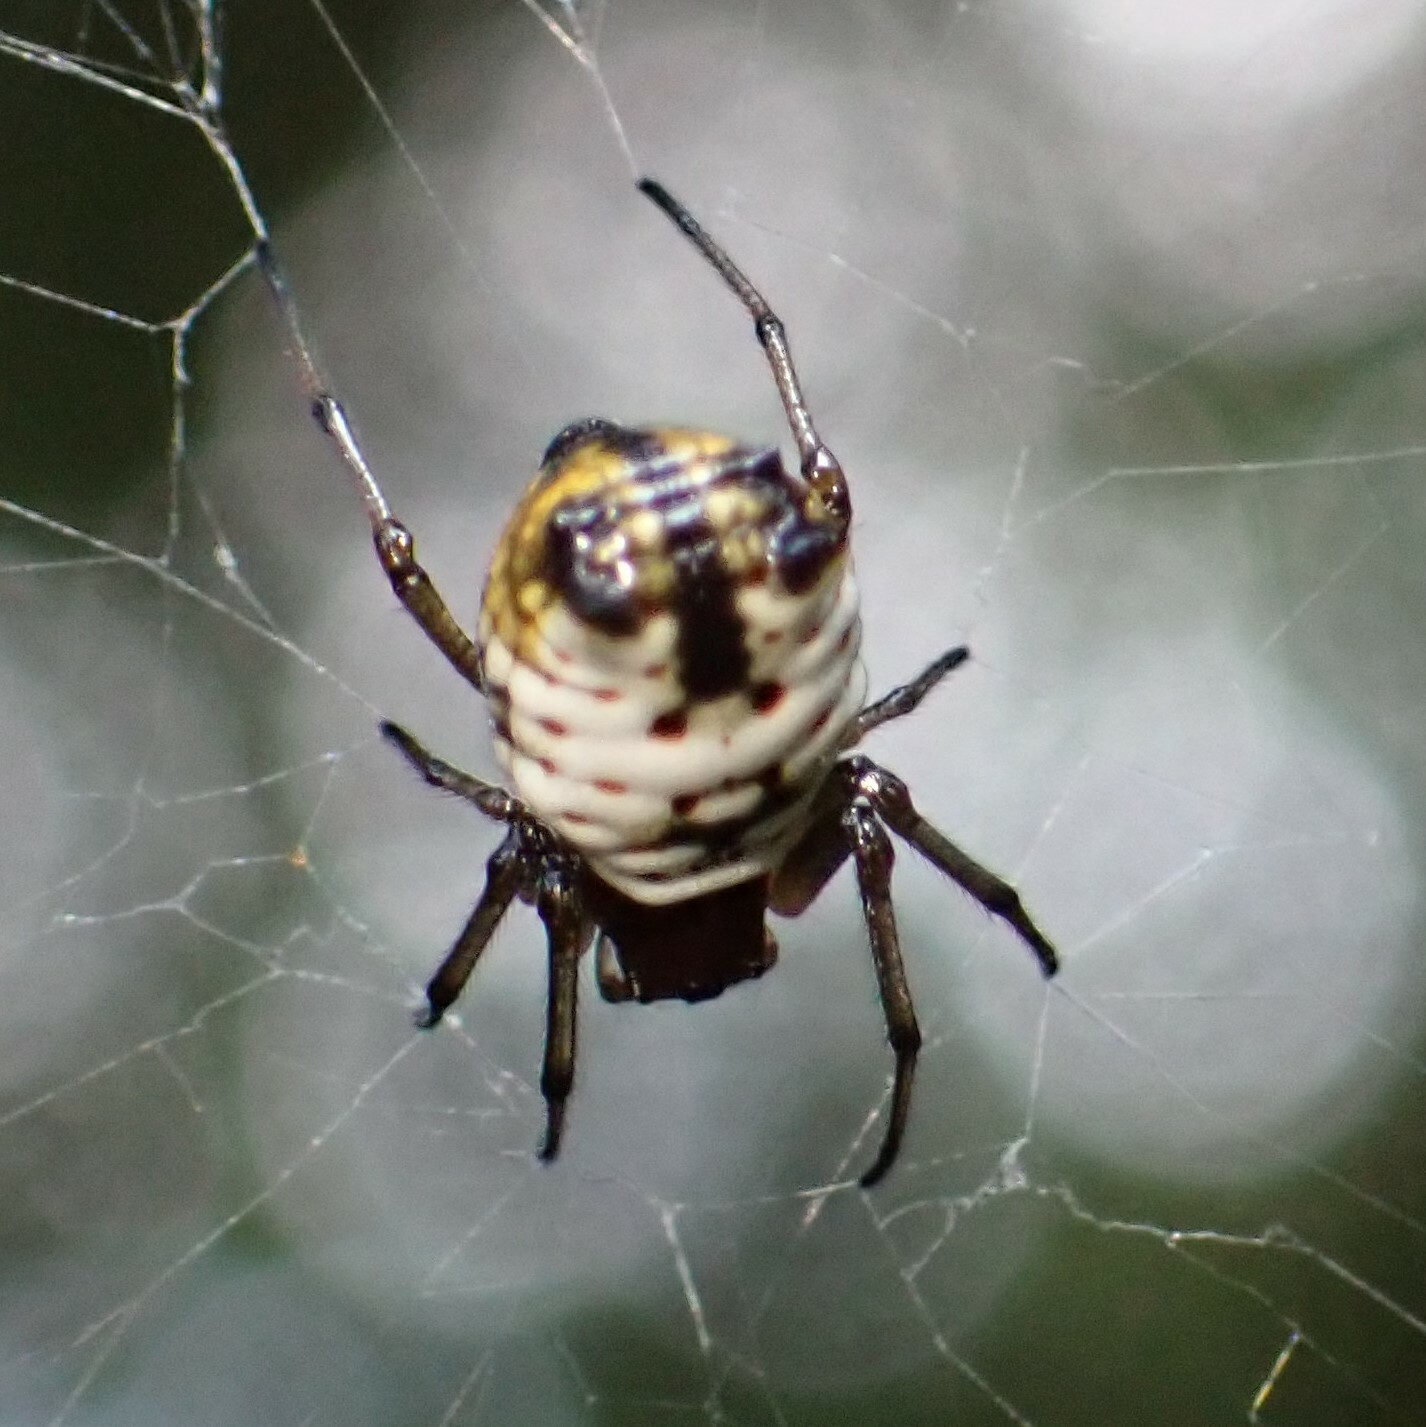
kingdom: Animalia
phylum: Arthropoda
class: Arachnida
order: Araneae
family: Araneidae
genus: Micrathena
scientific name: Micrathena mitrata
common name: Orb weavers
